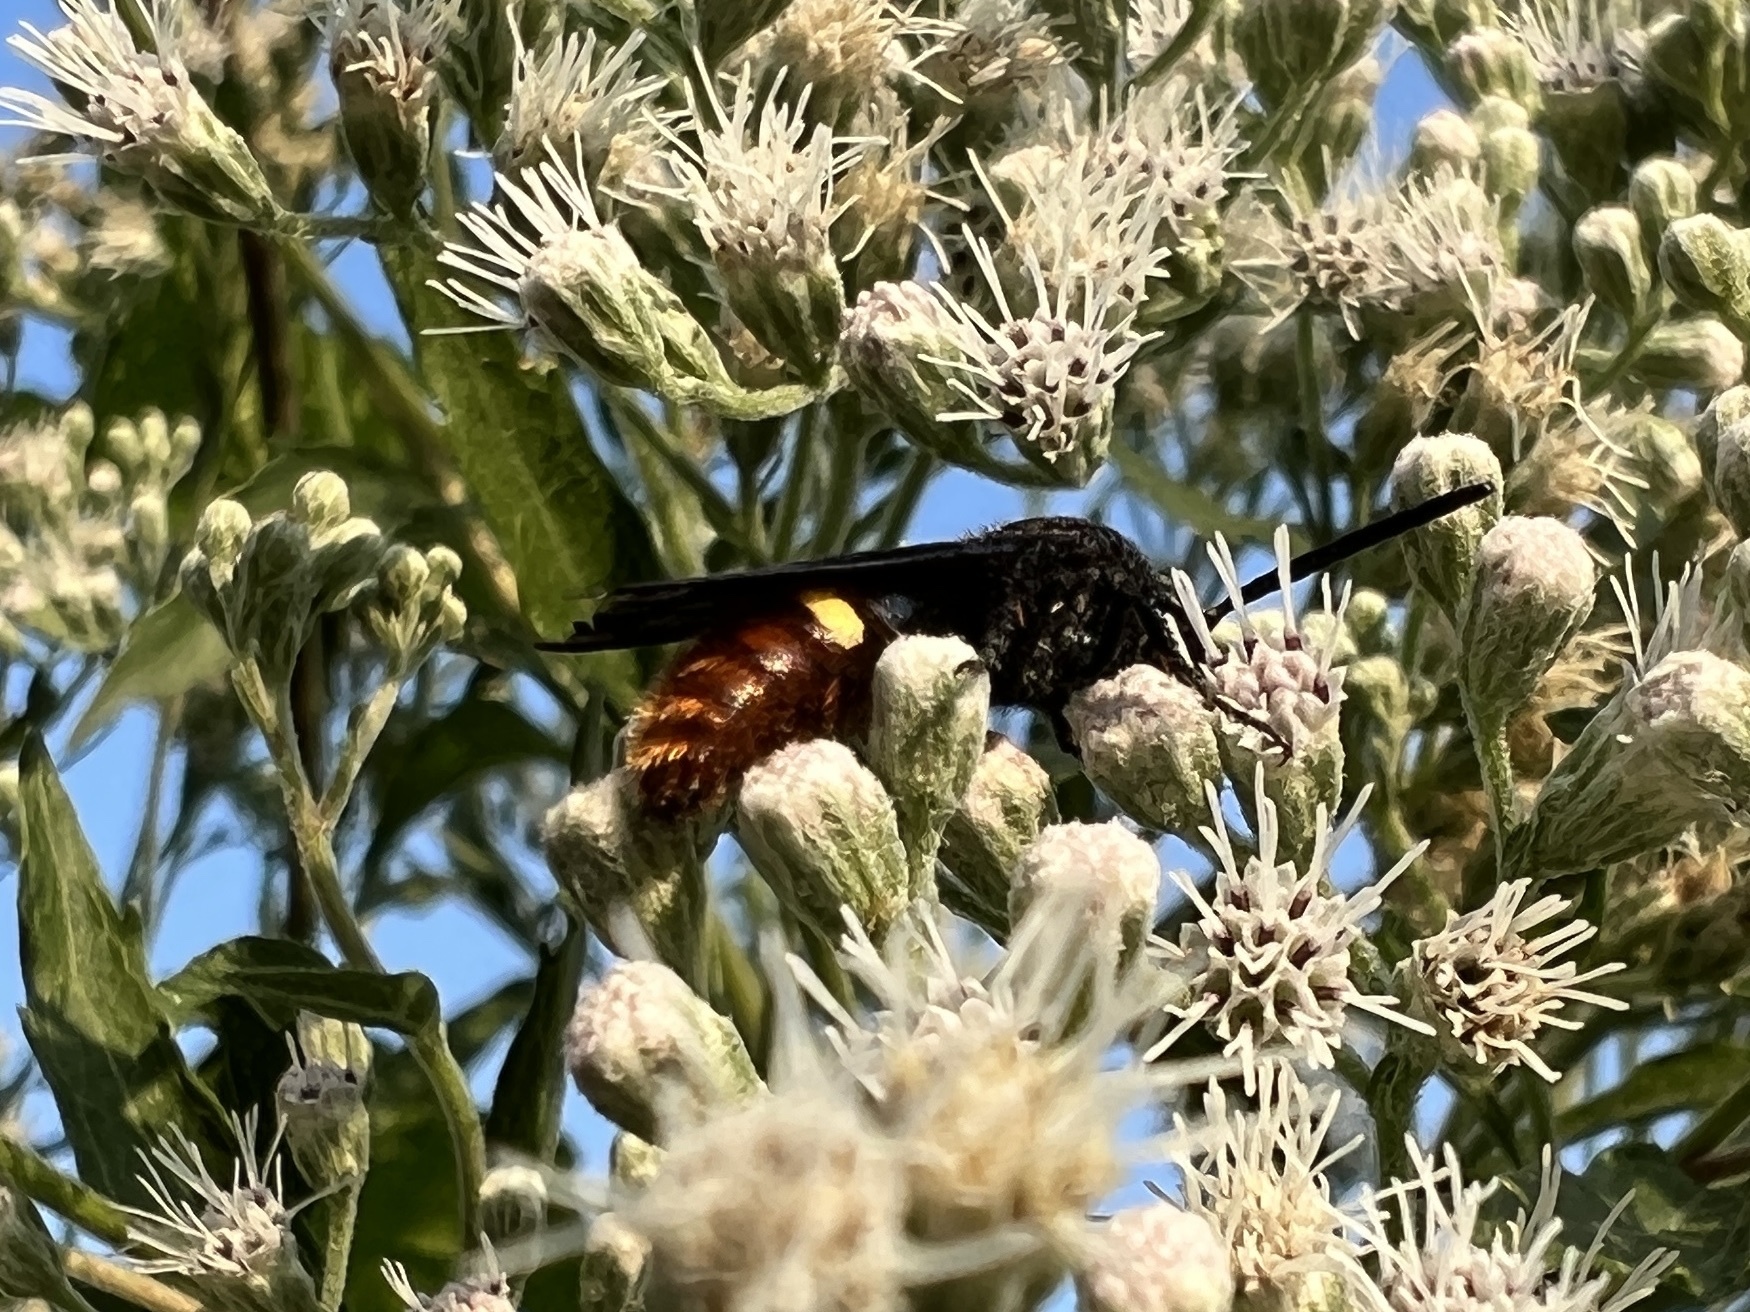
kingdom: Animalia
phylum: Arthropoda
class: Insecta
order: Hymenoptera
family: Scoliidae
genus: Scolia
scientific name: Scolia dubia
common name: Blue-winged scoliid wasp
